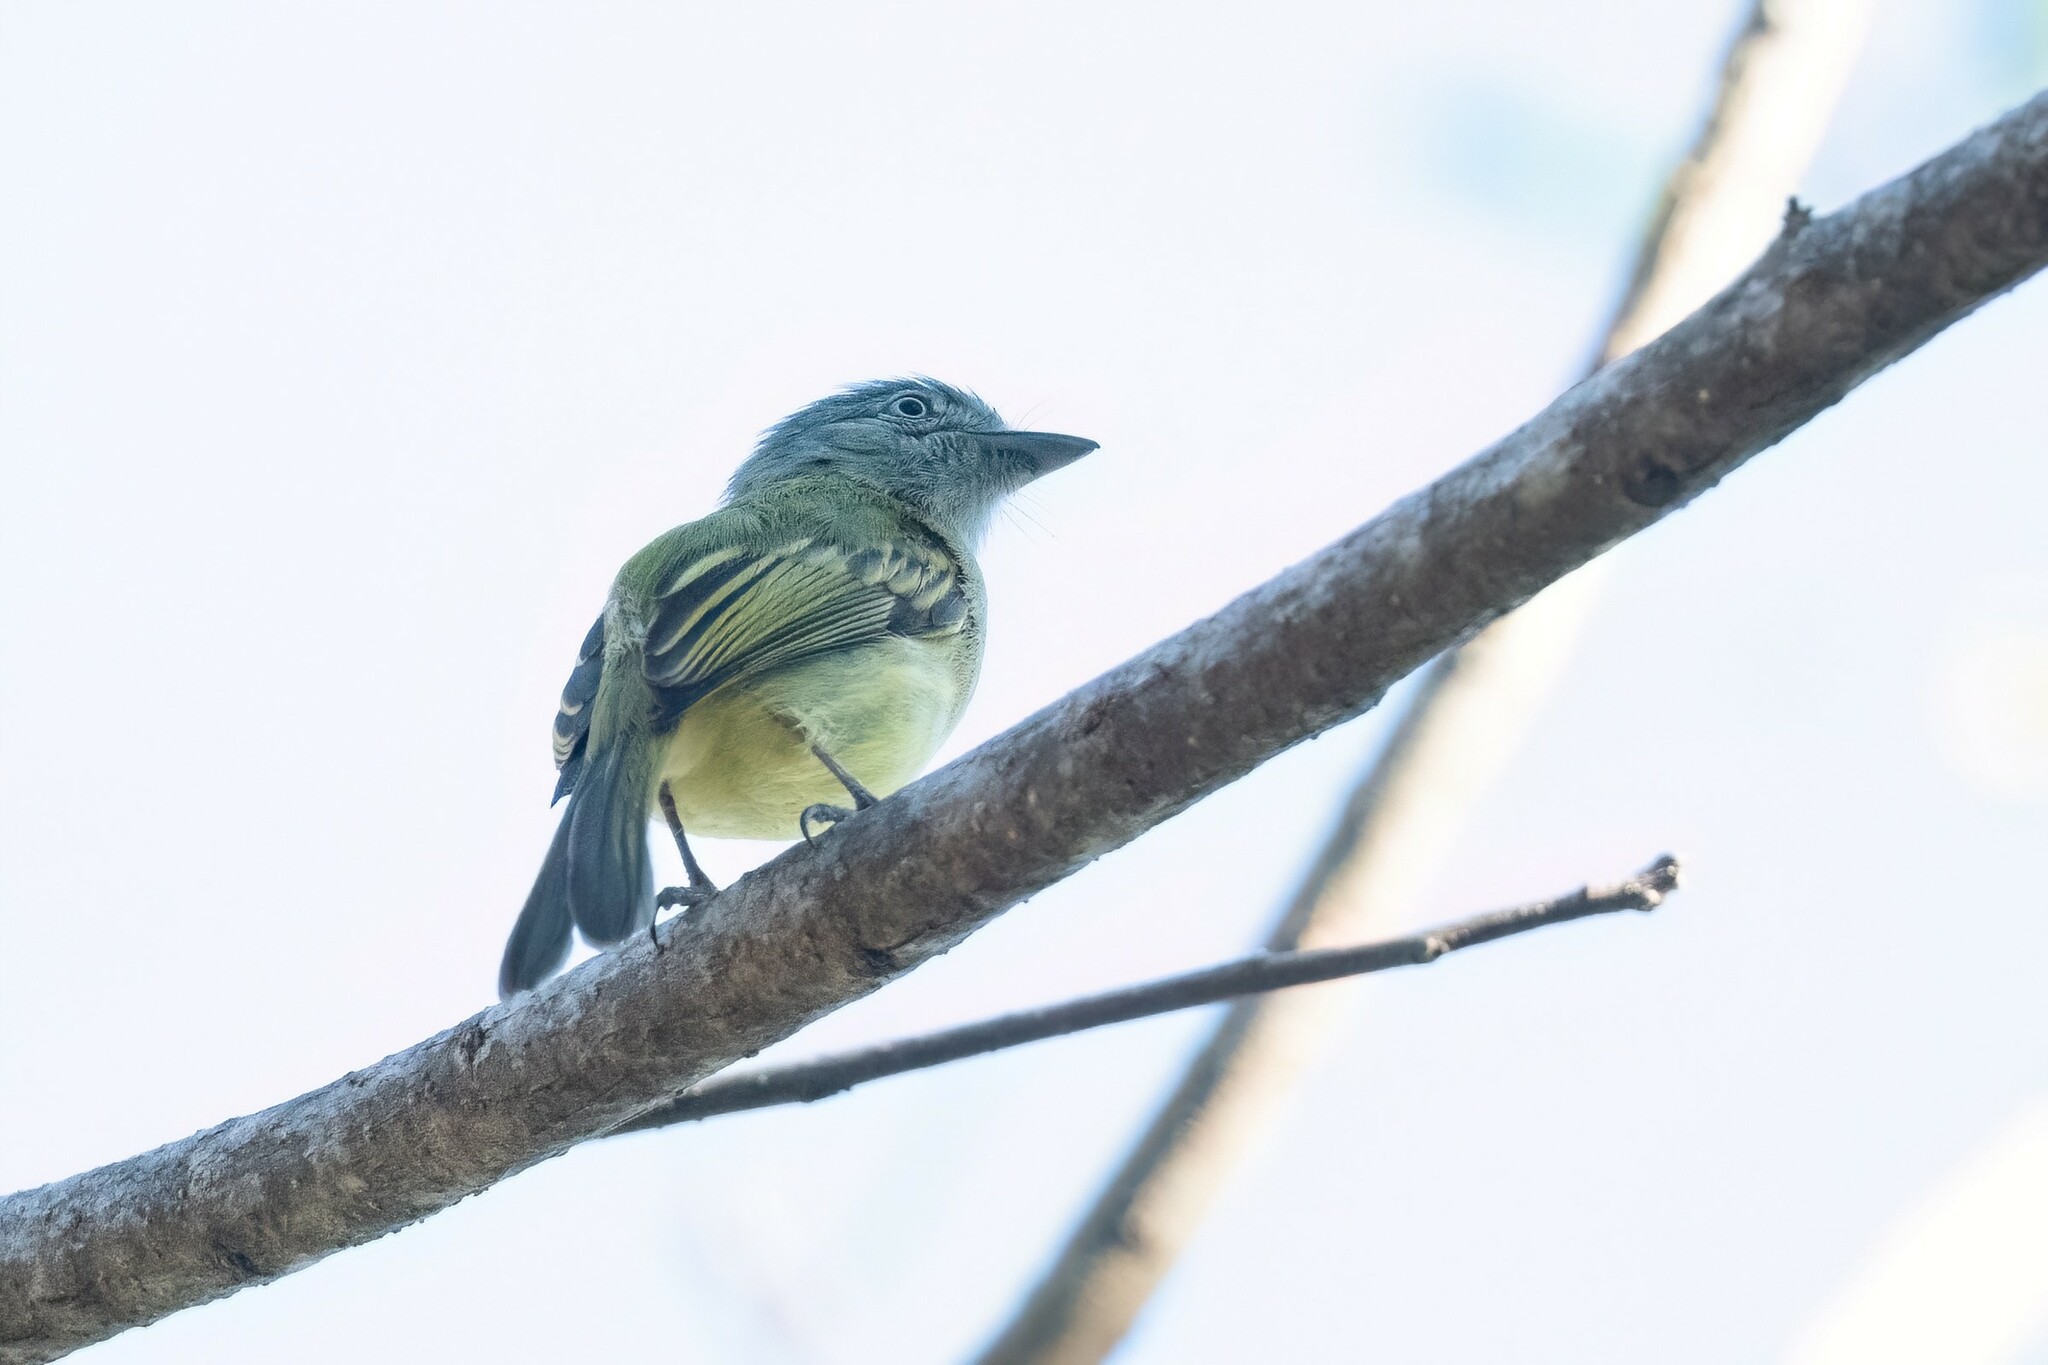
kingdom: Animalia
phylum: Chordata
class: Aves
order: Passeriformes
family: Tyrannidae
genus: Tolmomyias
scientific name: Tolmomyias sulphurescens
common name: Yellow-olive flycatcher
